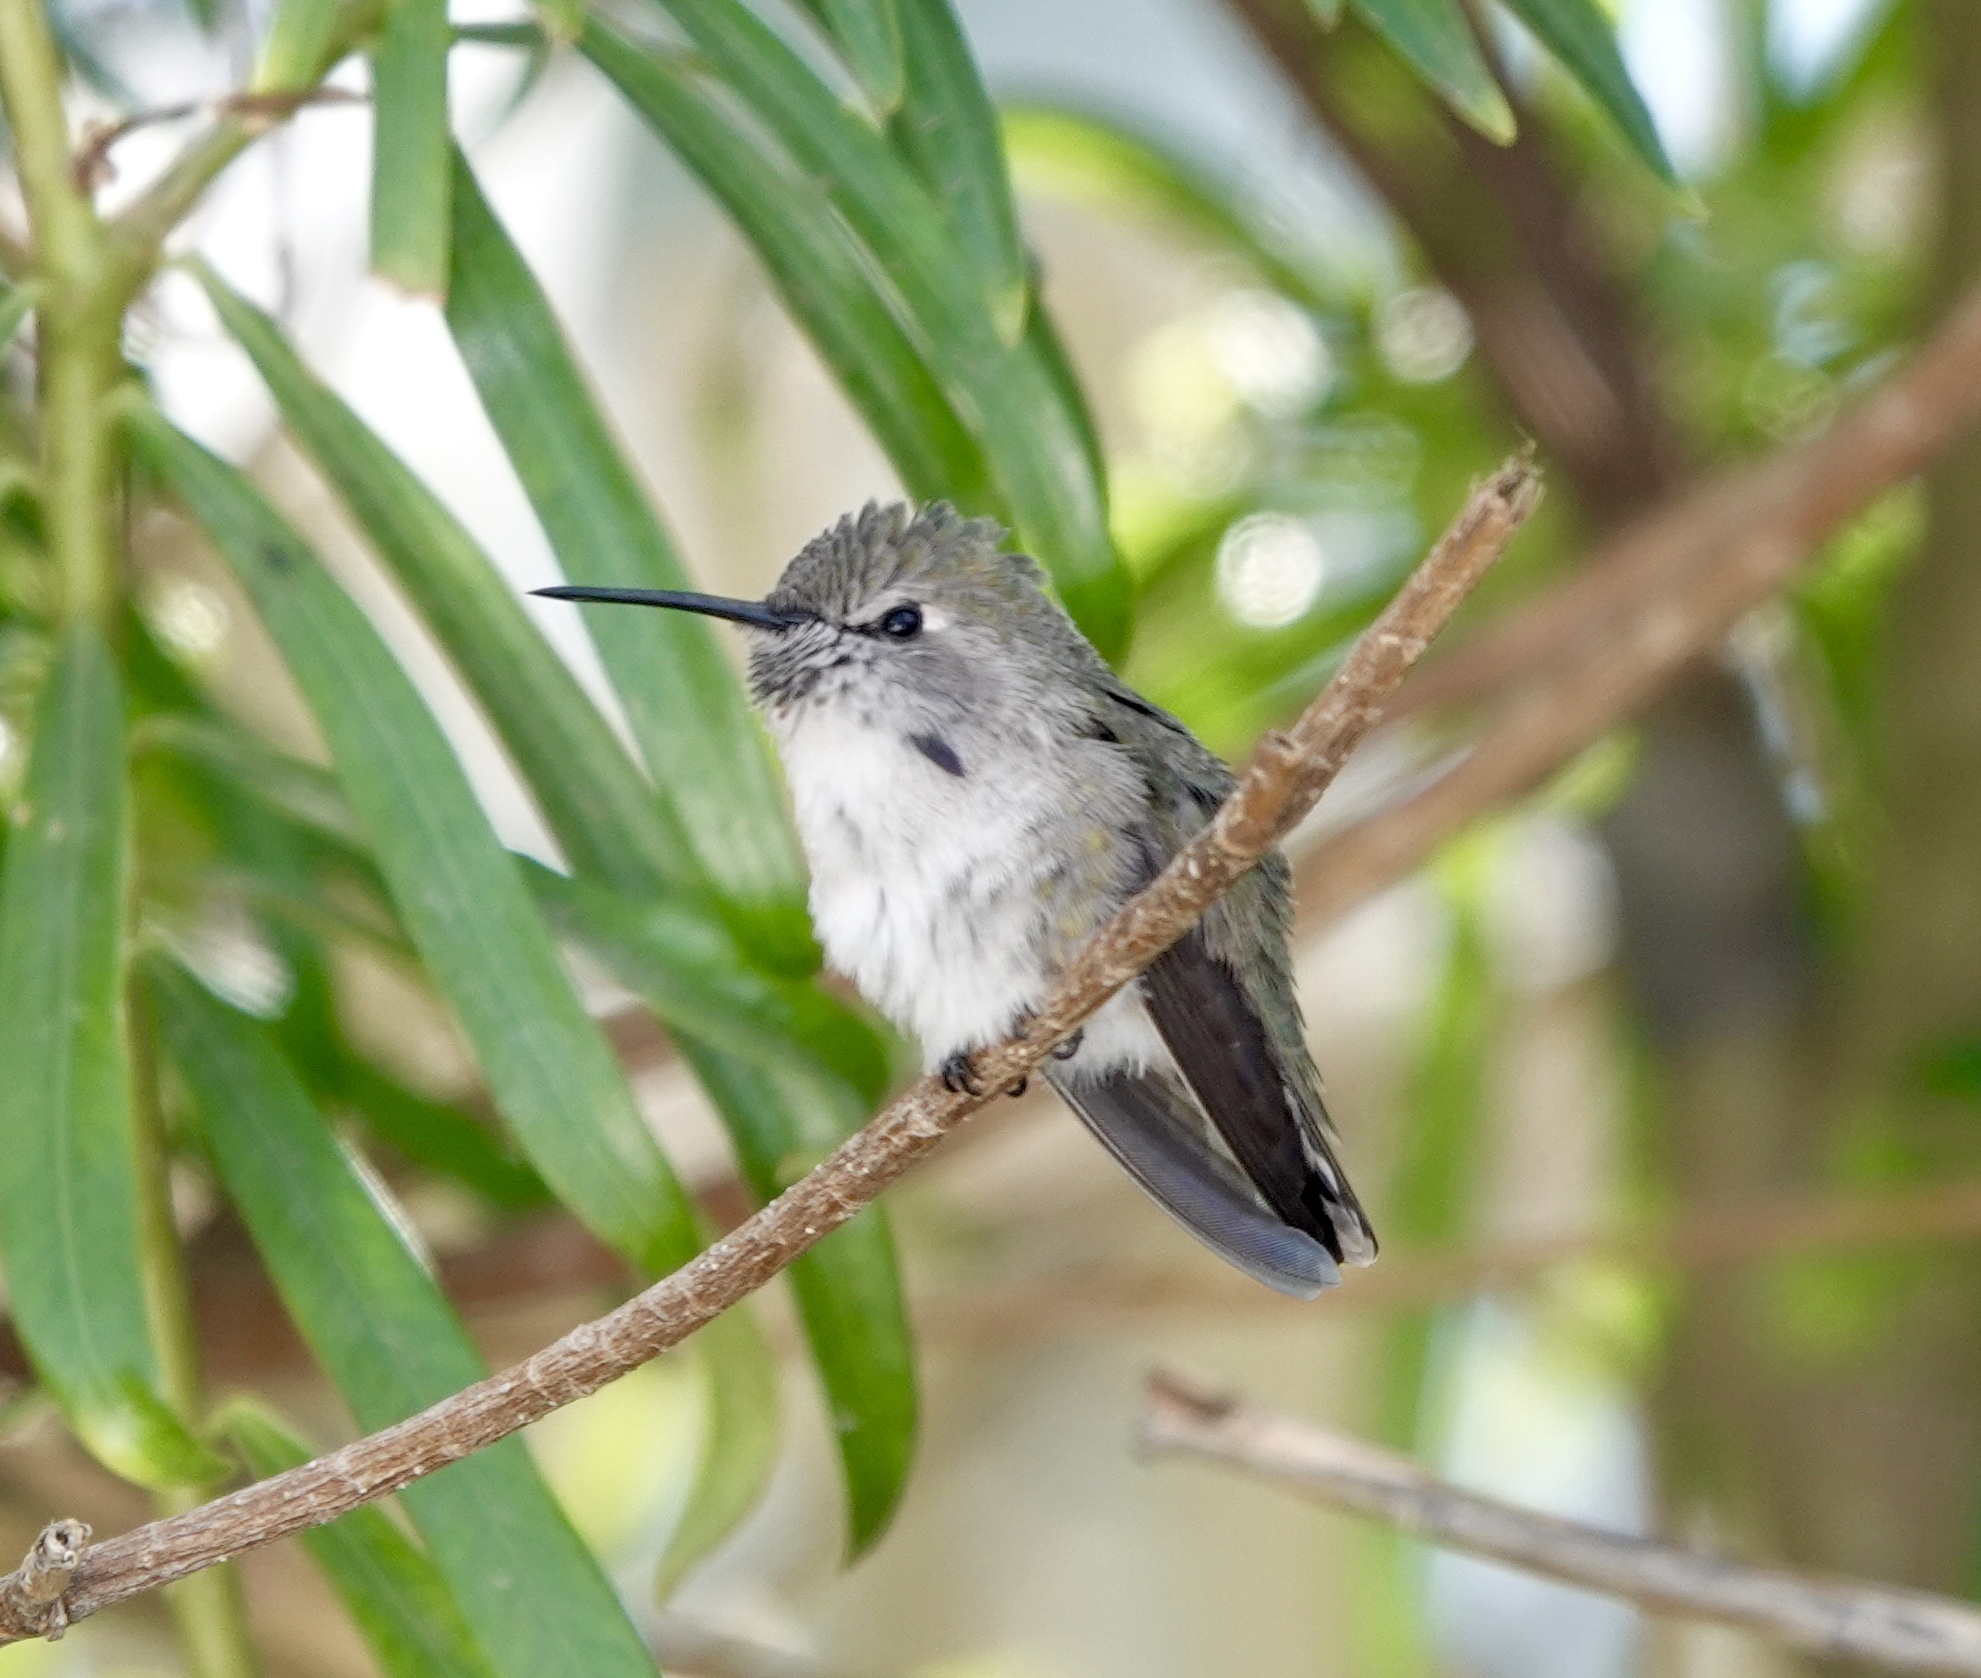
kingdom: Animalia
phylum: Chordata
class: Aves
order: Apodiformes
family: Trochilidae
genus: Calypte
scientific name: Calypte costae
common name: Costa's hummingbird
